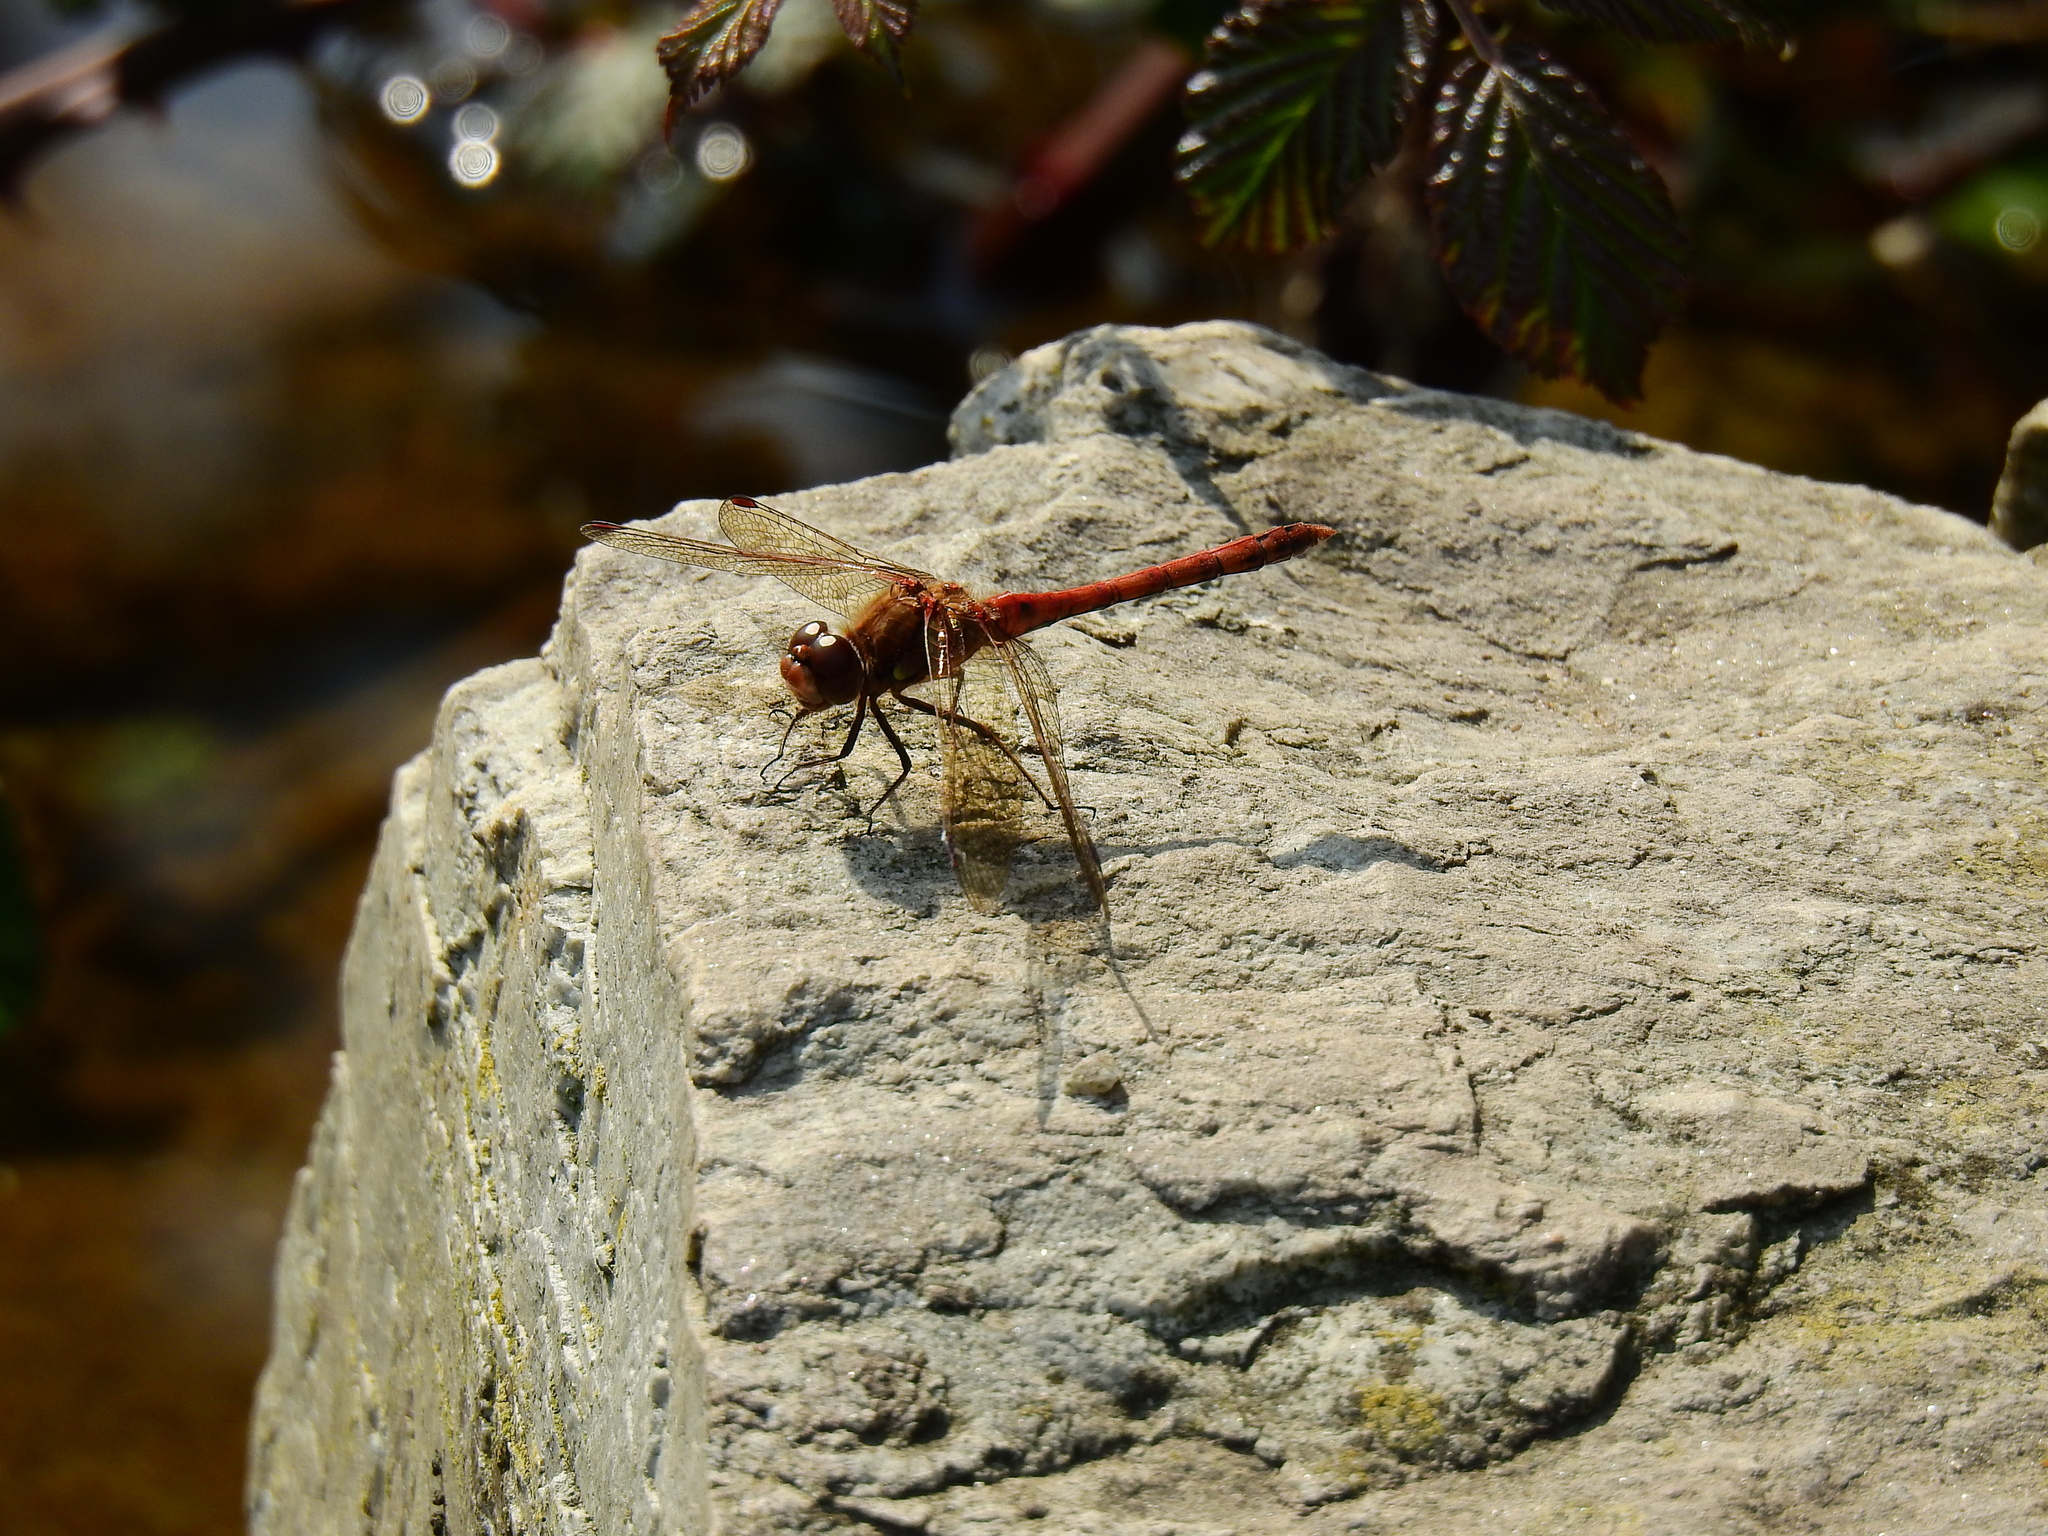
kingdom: Animalia
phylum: Arthropoda
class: Insecta
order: Odonata
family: Libellulidae
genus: Sympetrum
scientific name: Sympetrum striolatum
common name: Common darter
